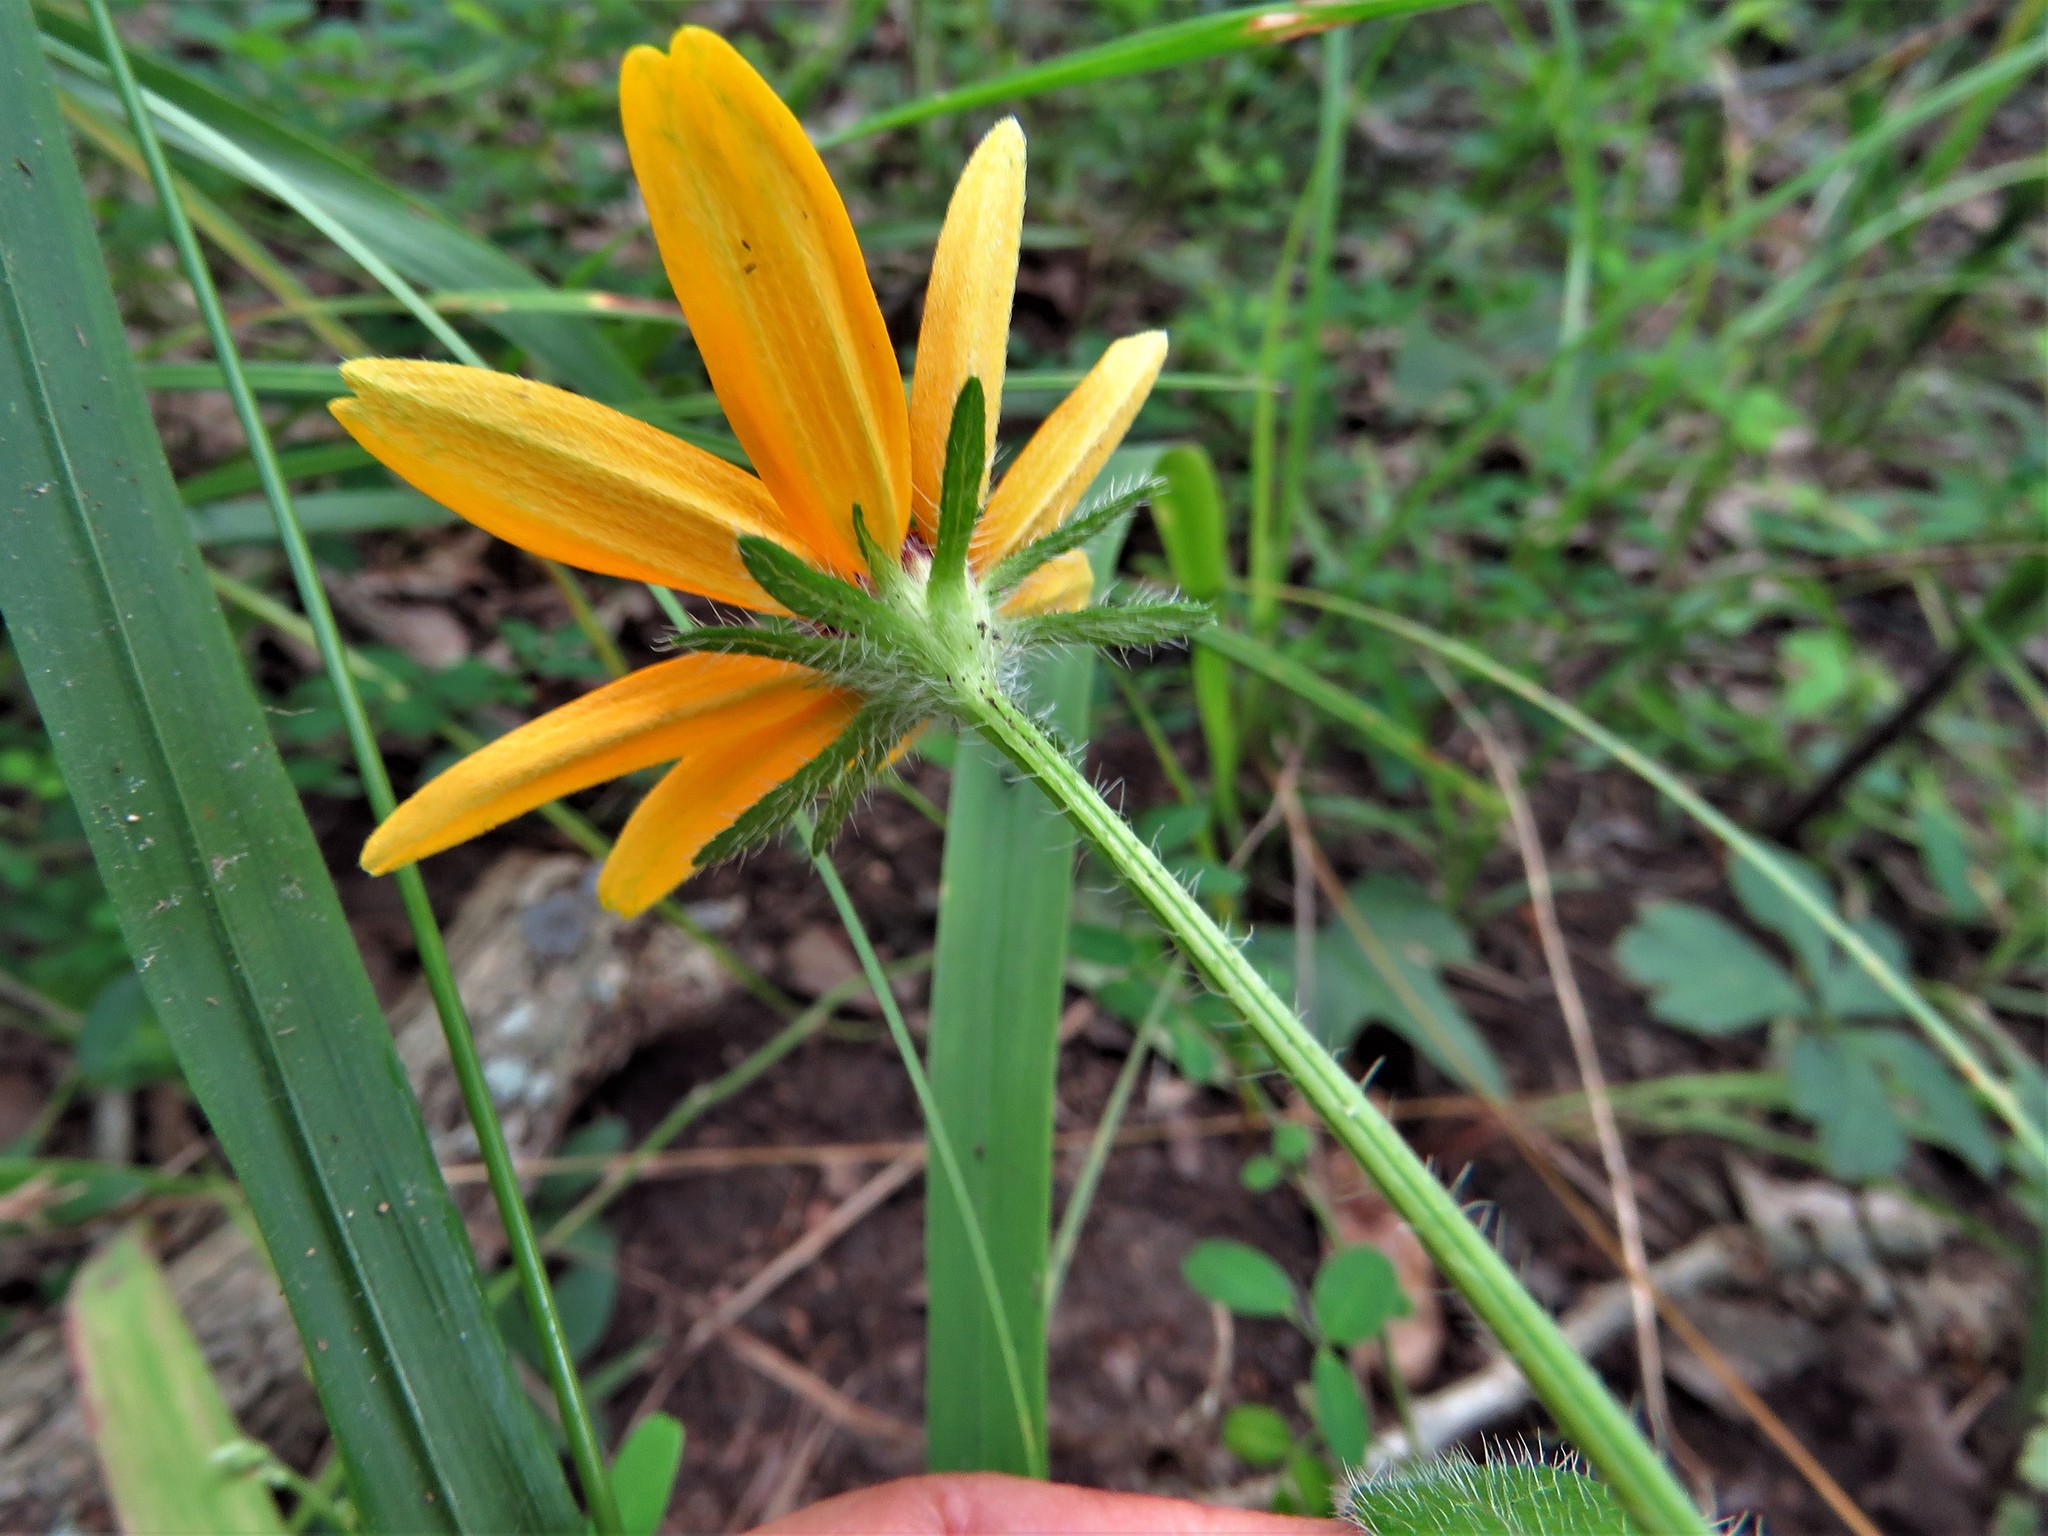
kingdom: Plantae
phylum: Tracheophyta
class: Magnoliopsida
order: Asterales
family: Asteraceae
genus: Rudbeckia
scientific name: Rudbeckia hirta
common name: Black-eyed-susan
